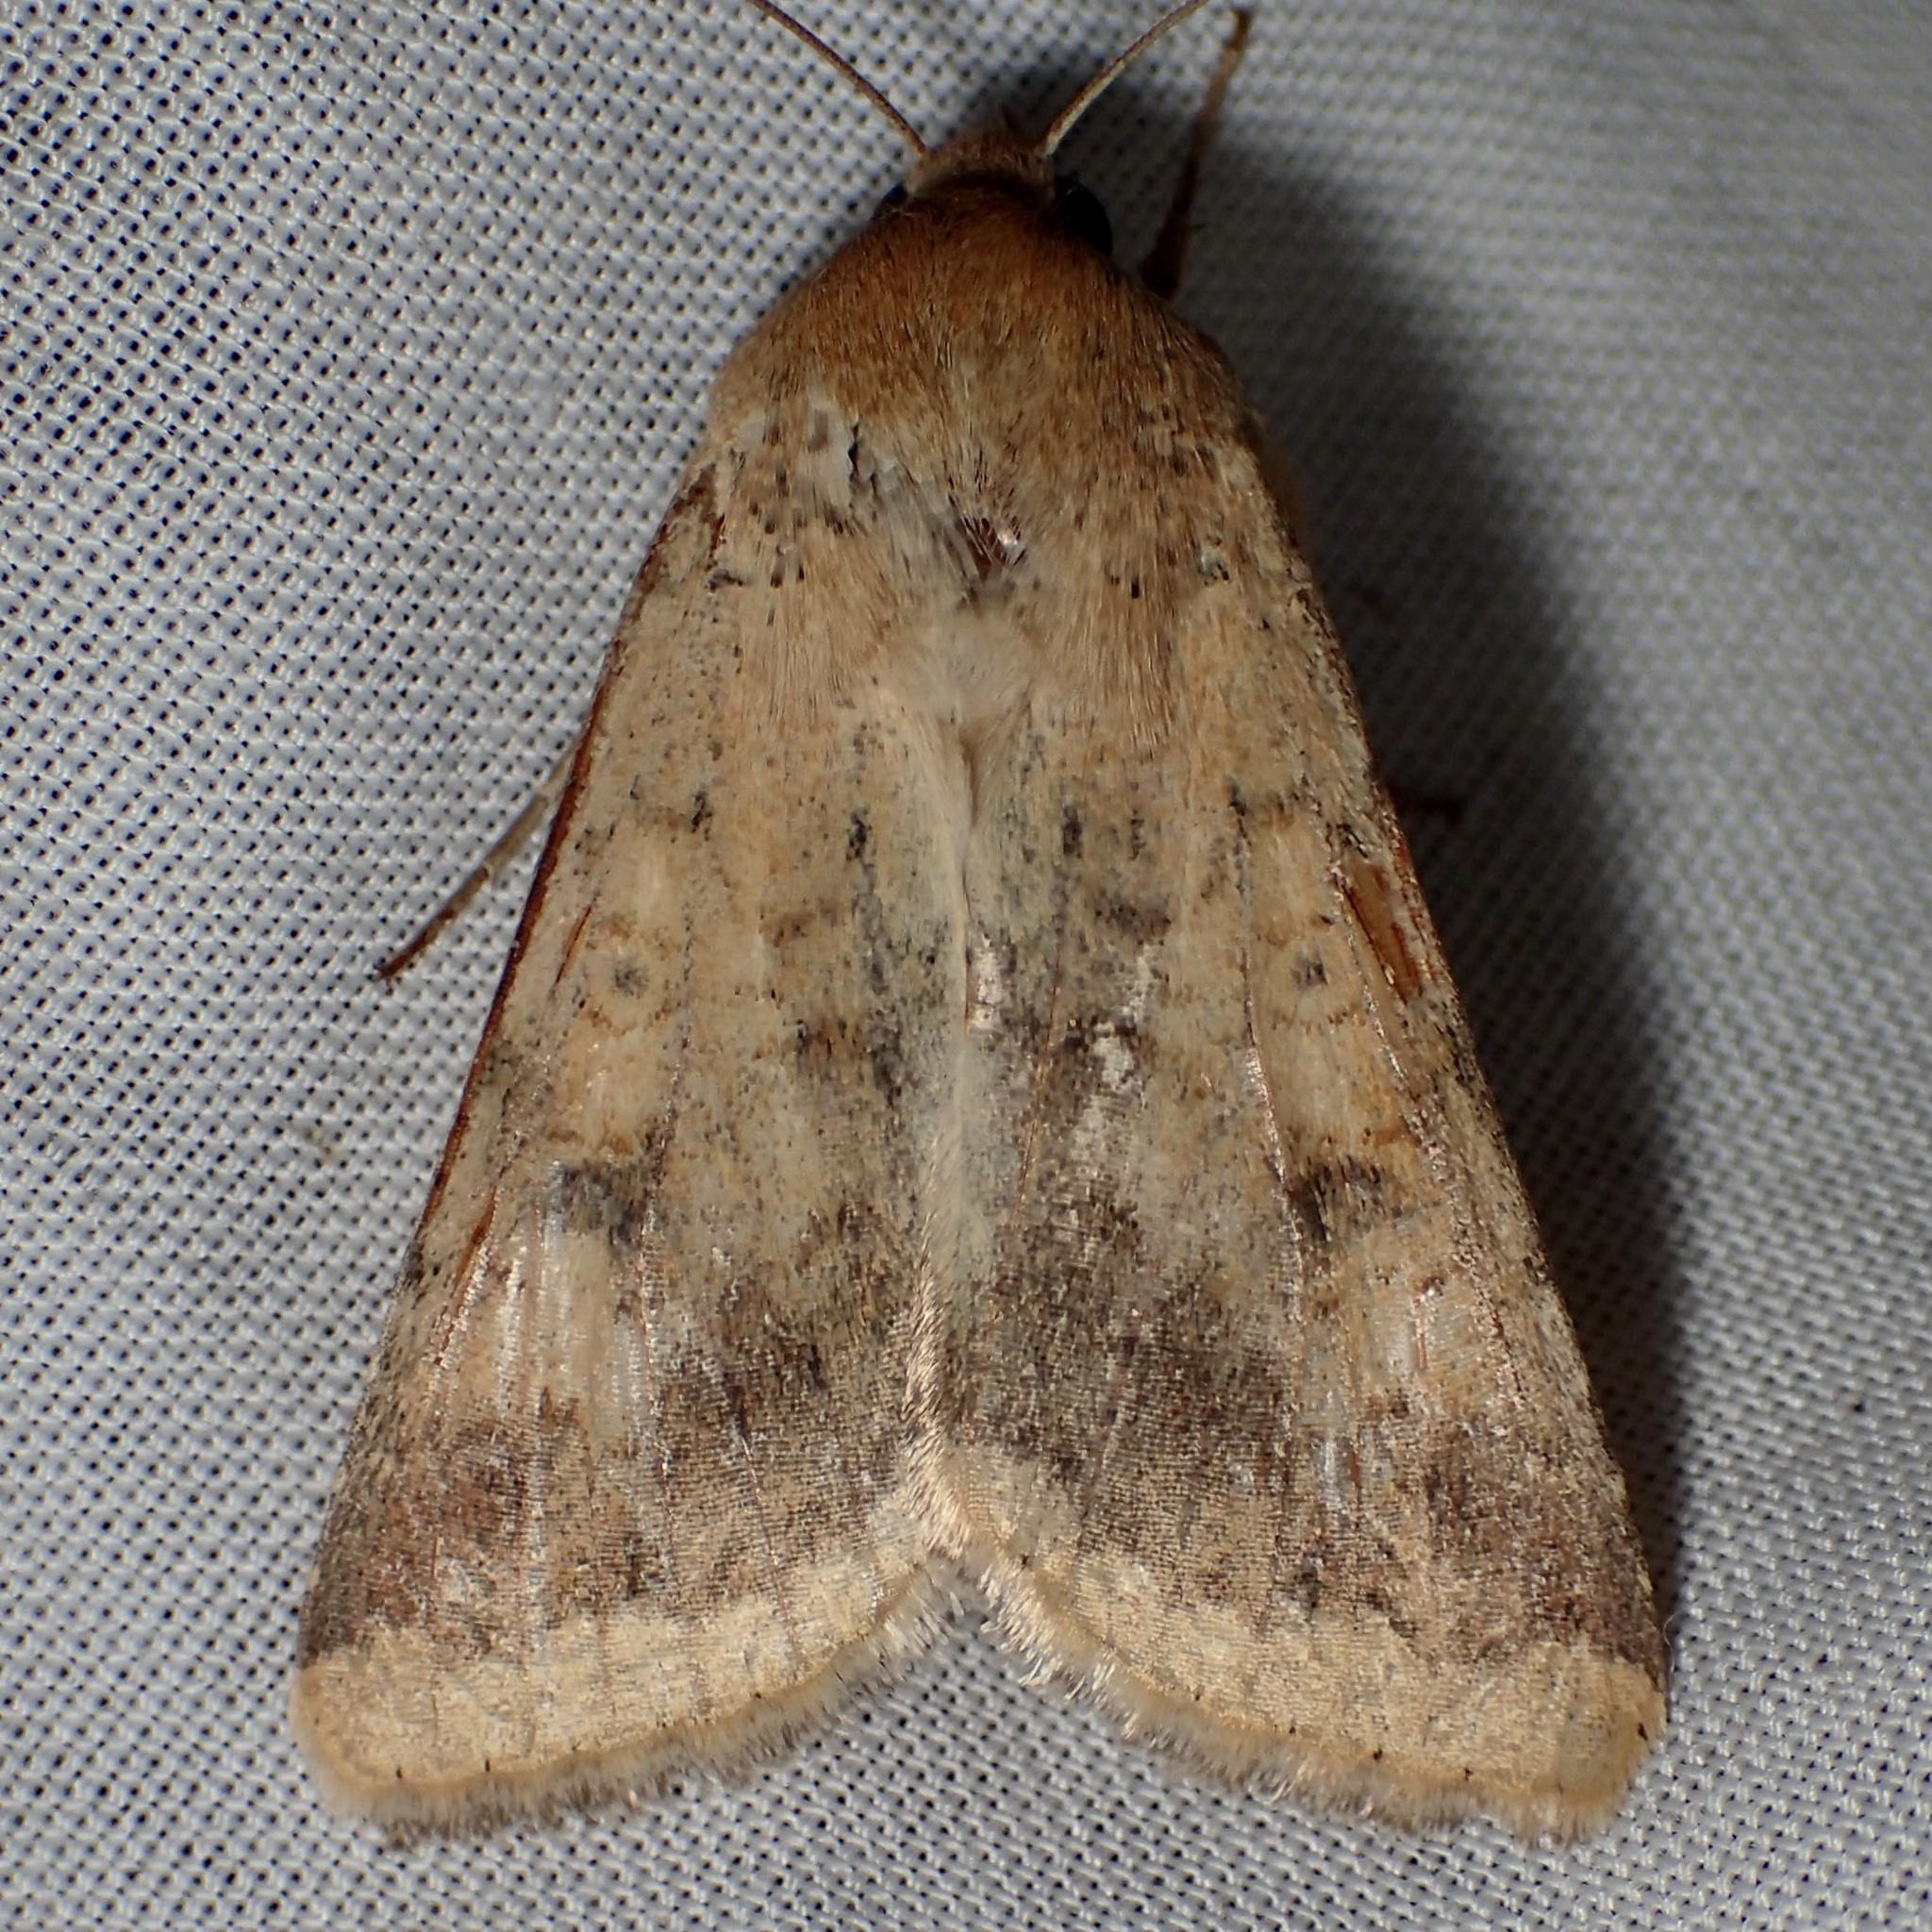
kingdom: Animalia
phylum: Arthropoda
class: Insecta
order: Lepidoptera
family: Noctuidae
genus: Helicoverpa
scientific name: Helicoverpa zea
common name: Bollworm
